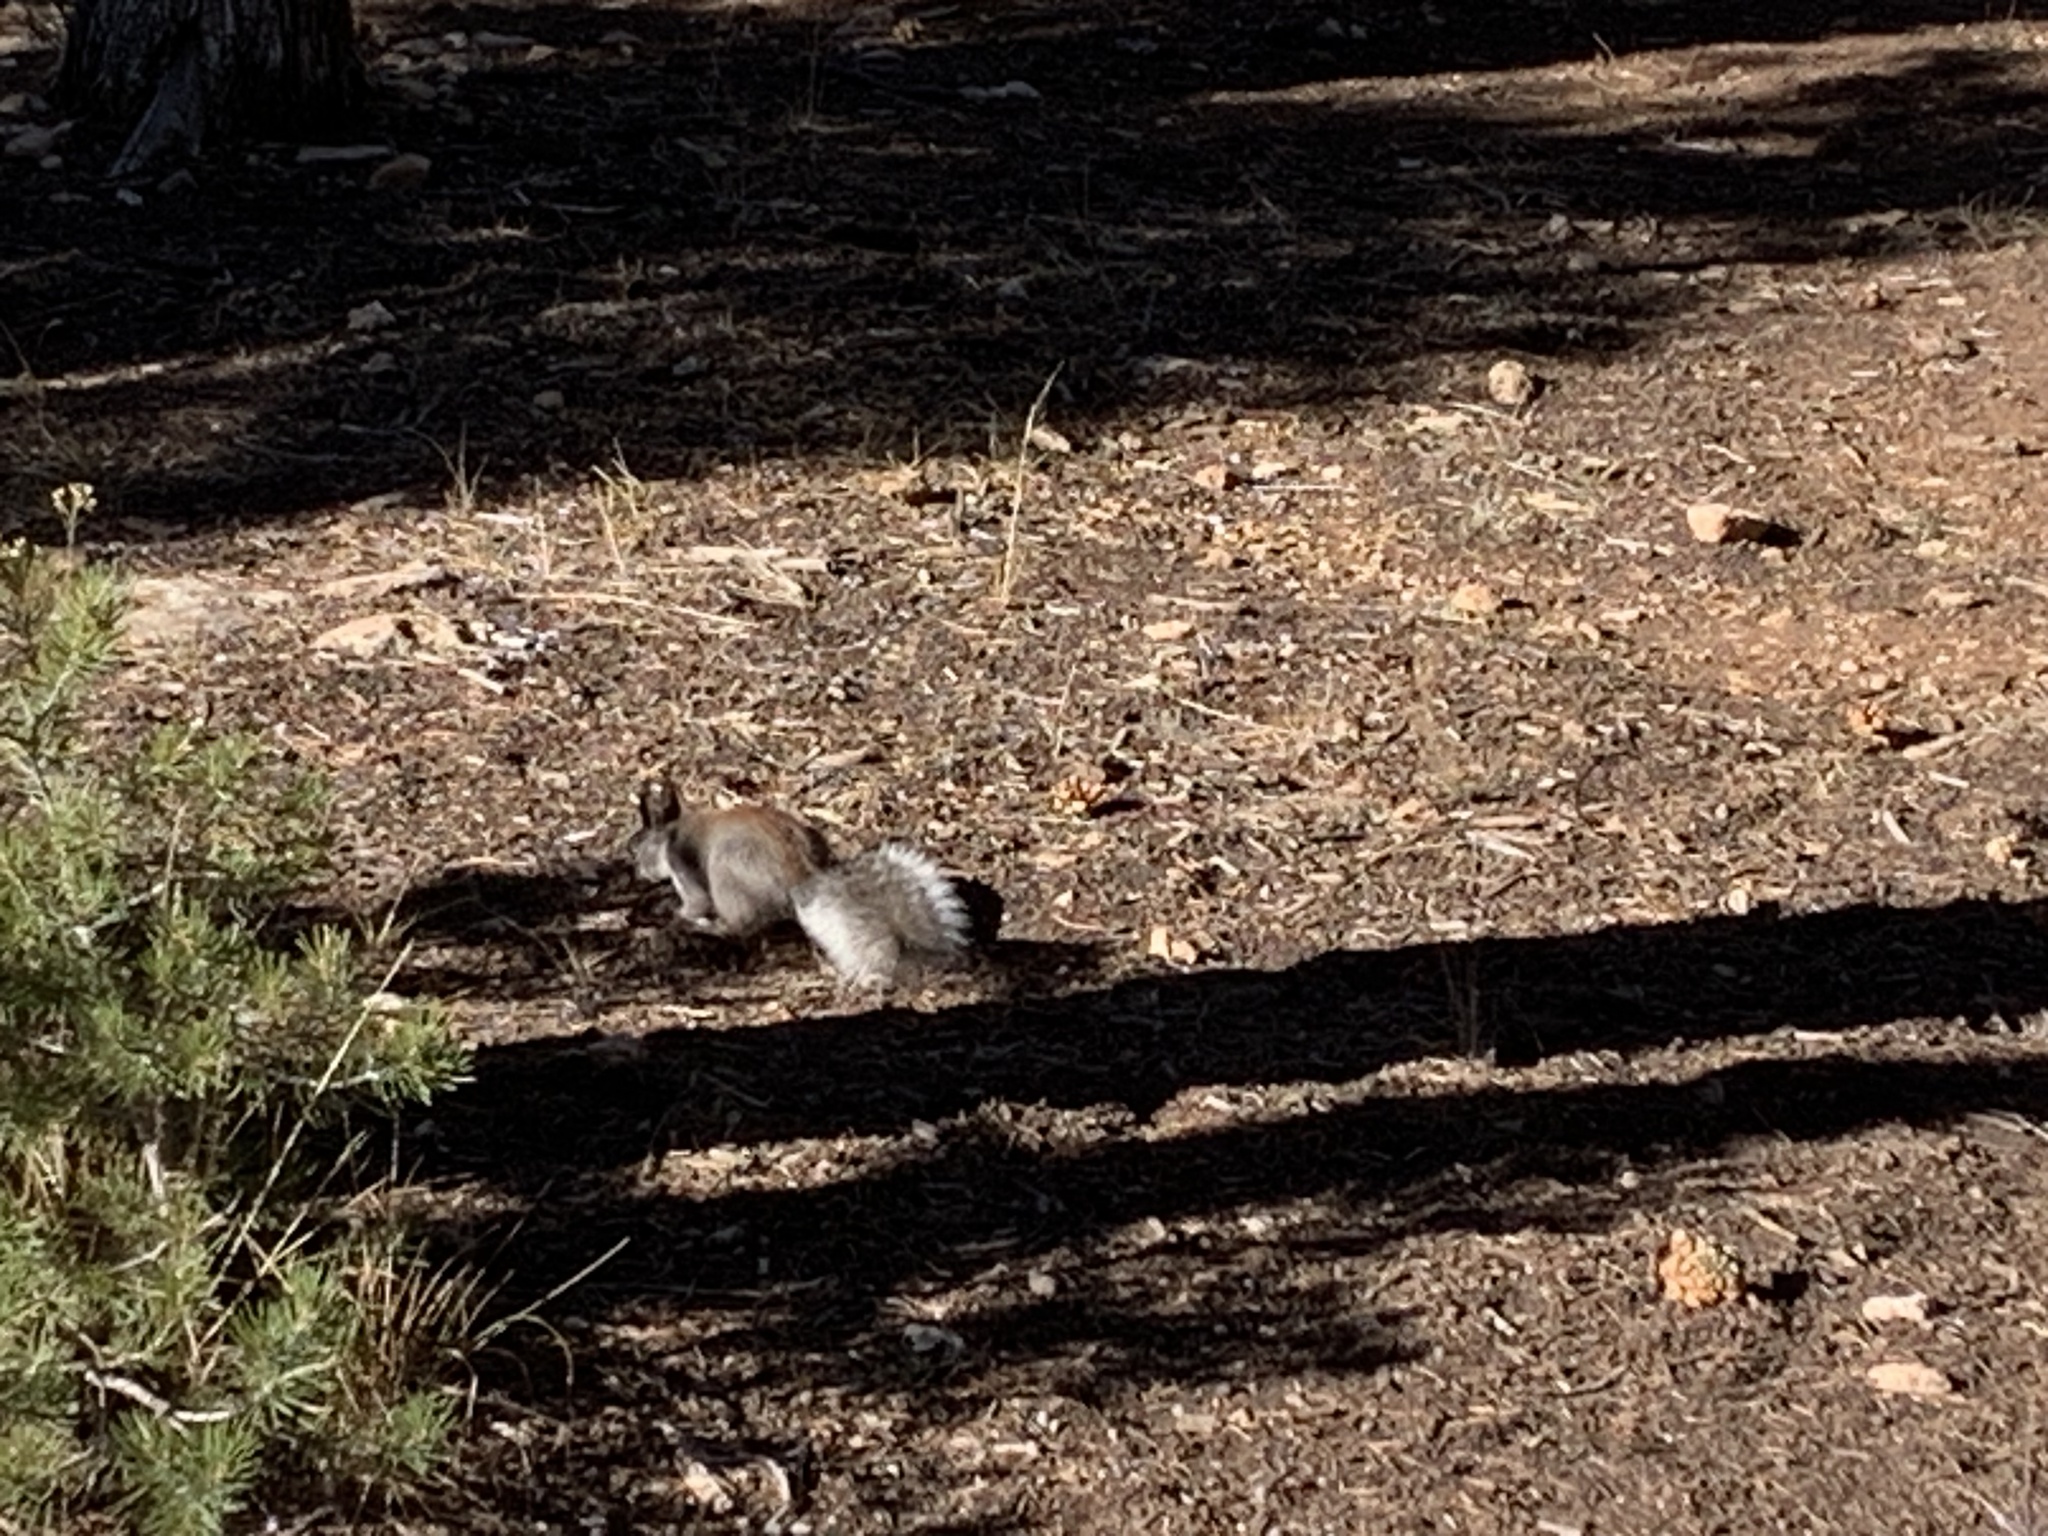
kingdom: Animalia
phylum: Chordata
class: Mammalia
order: Rodentia
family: Sciuridae
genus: Sciurus
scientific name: Sciurus aberti
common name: Abert's squirrel
